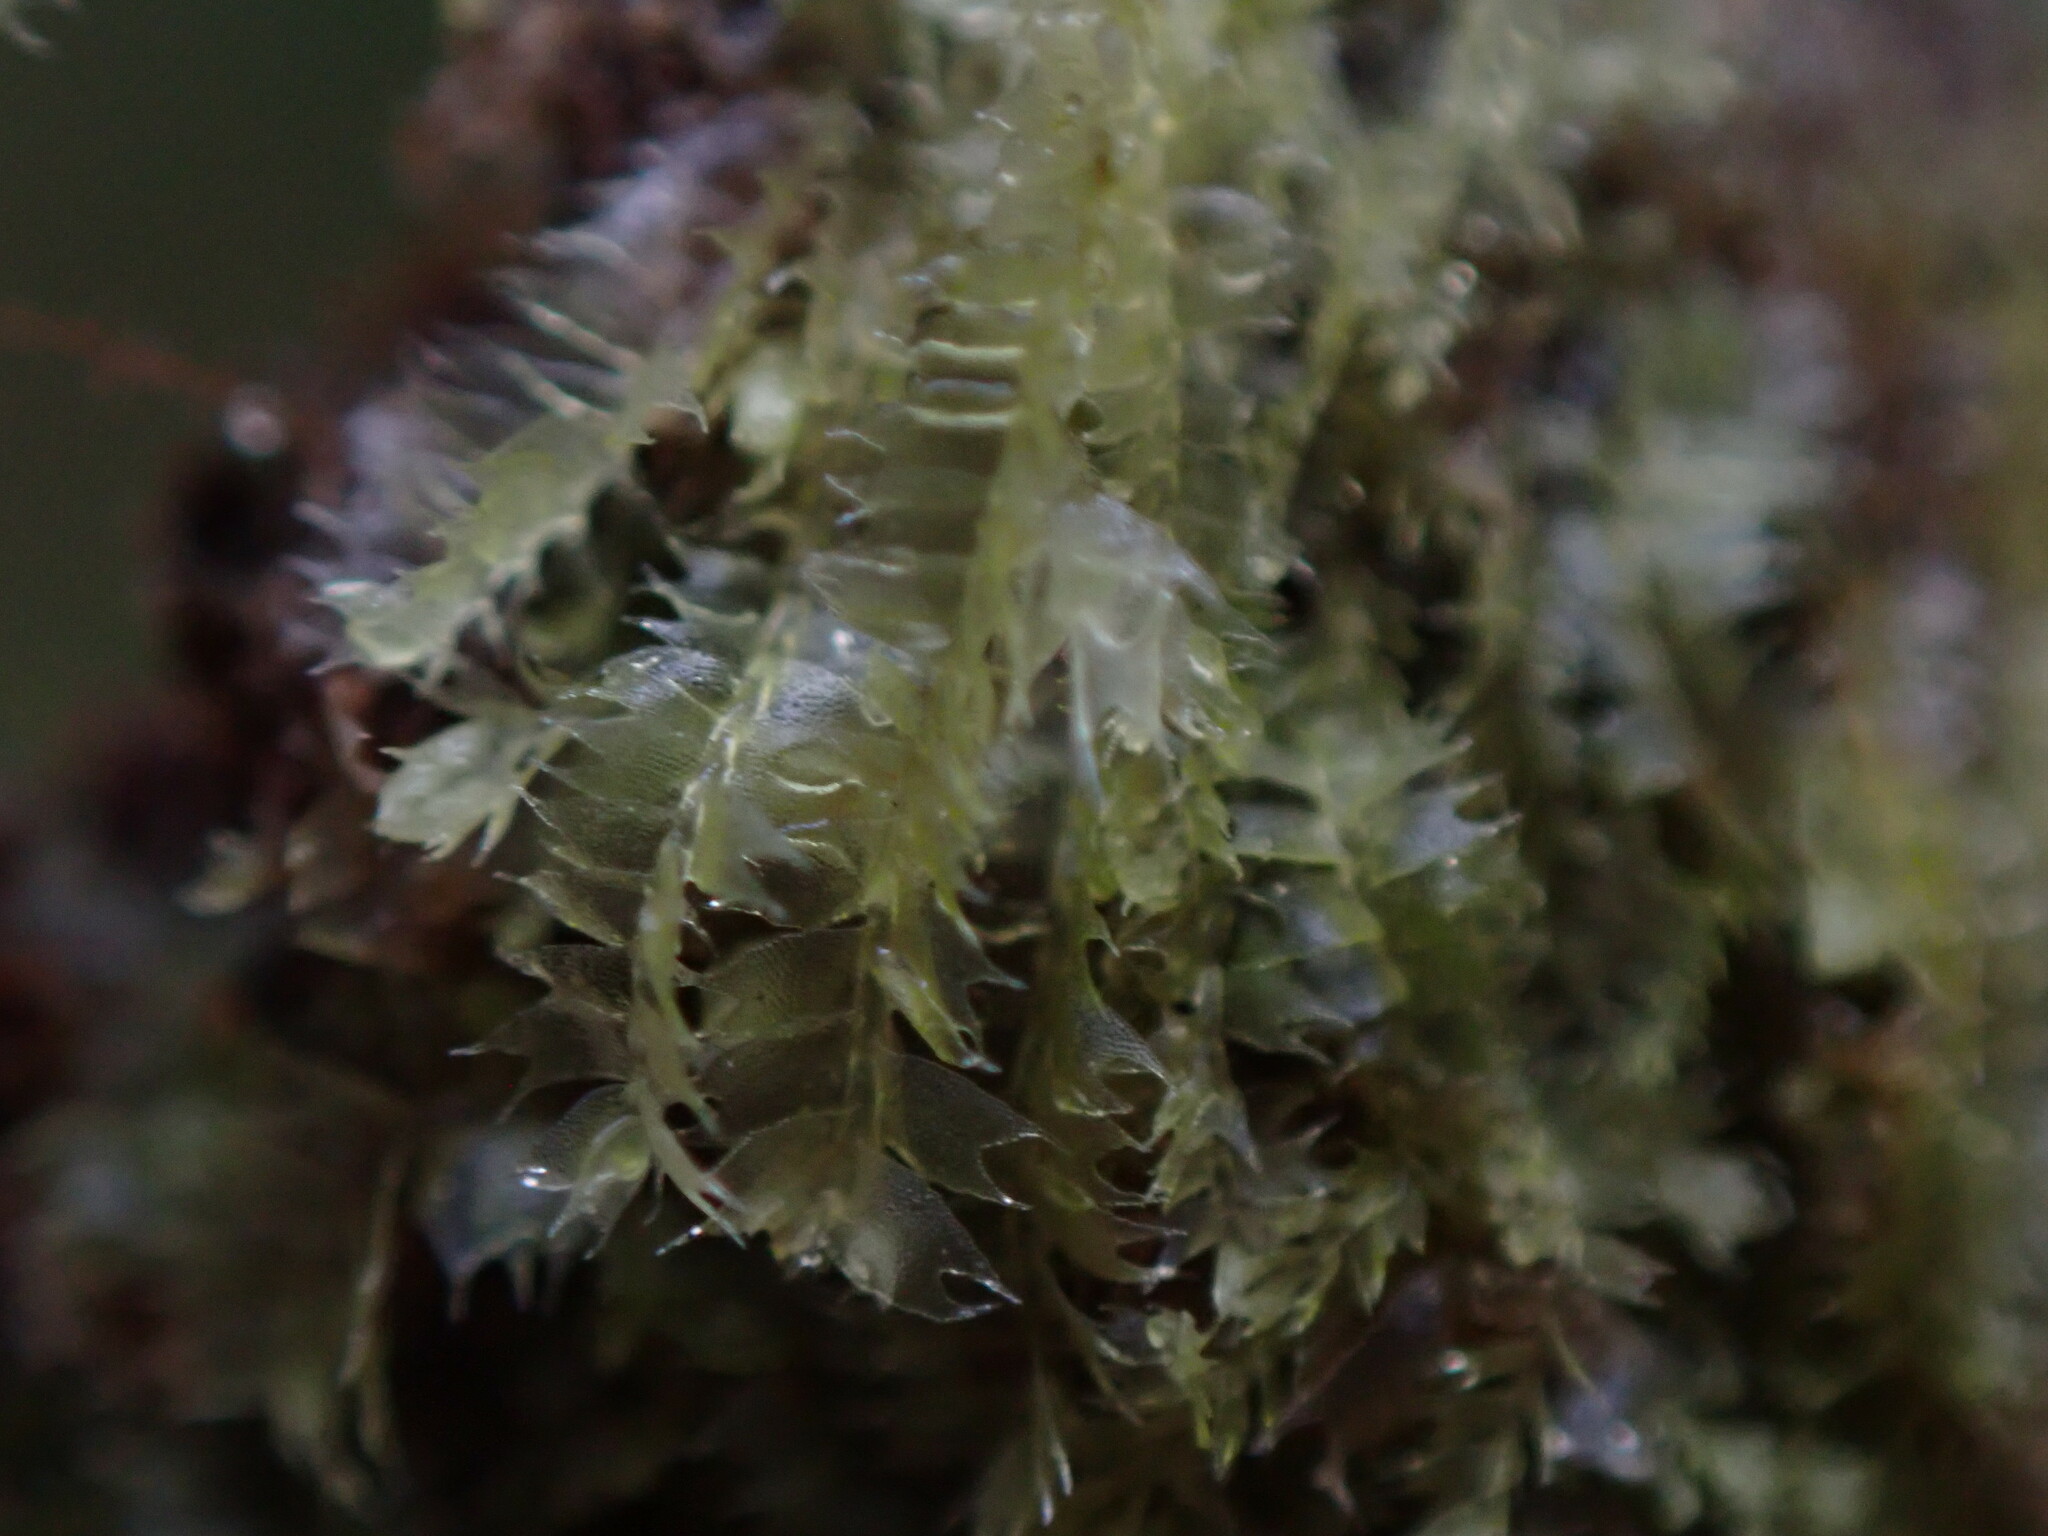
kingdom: Plantae
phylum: Marchantiophyta
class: Jungermanniopsida
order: Jungermanniales
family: Lophocoleaceae
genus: Lophocolea
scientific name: Lophocolea bidentata
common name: Bifid crestwort
